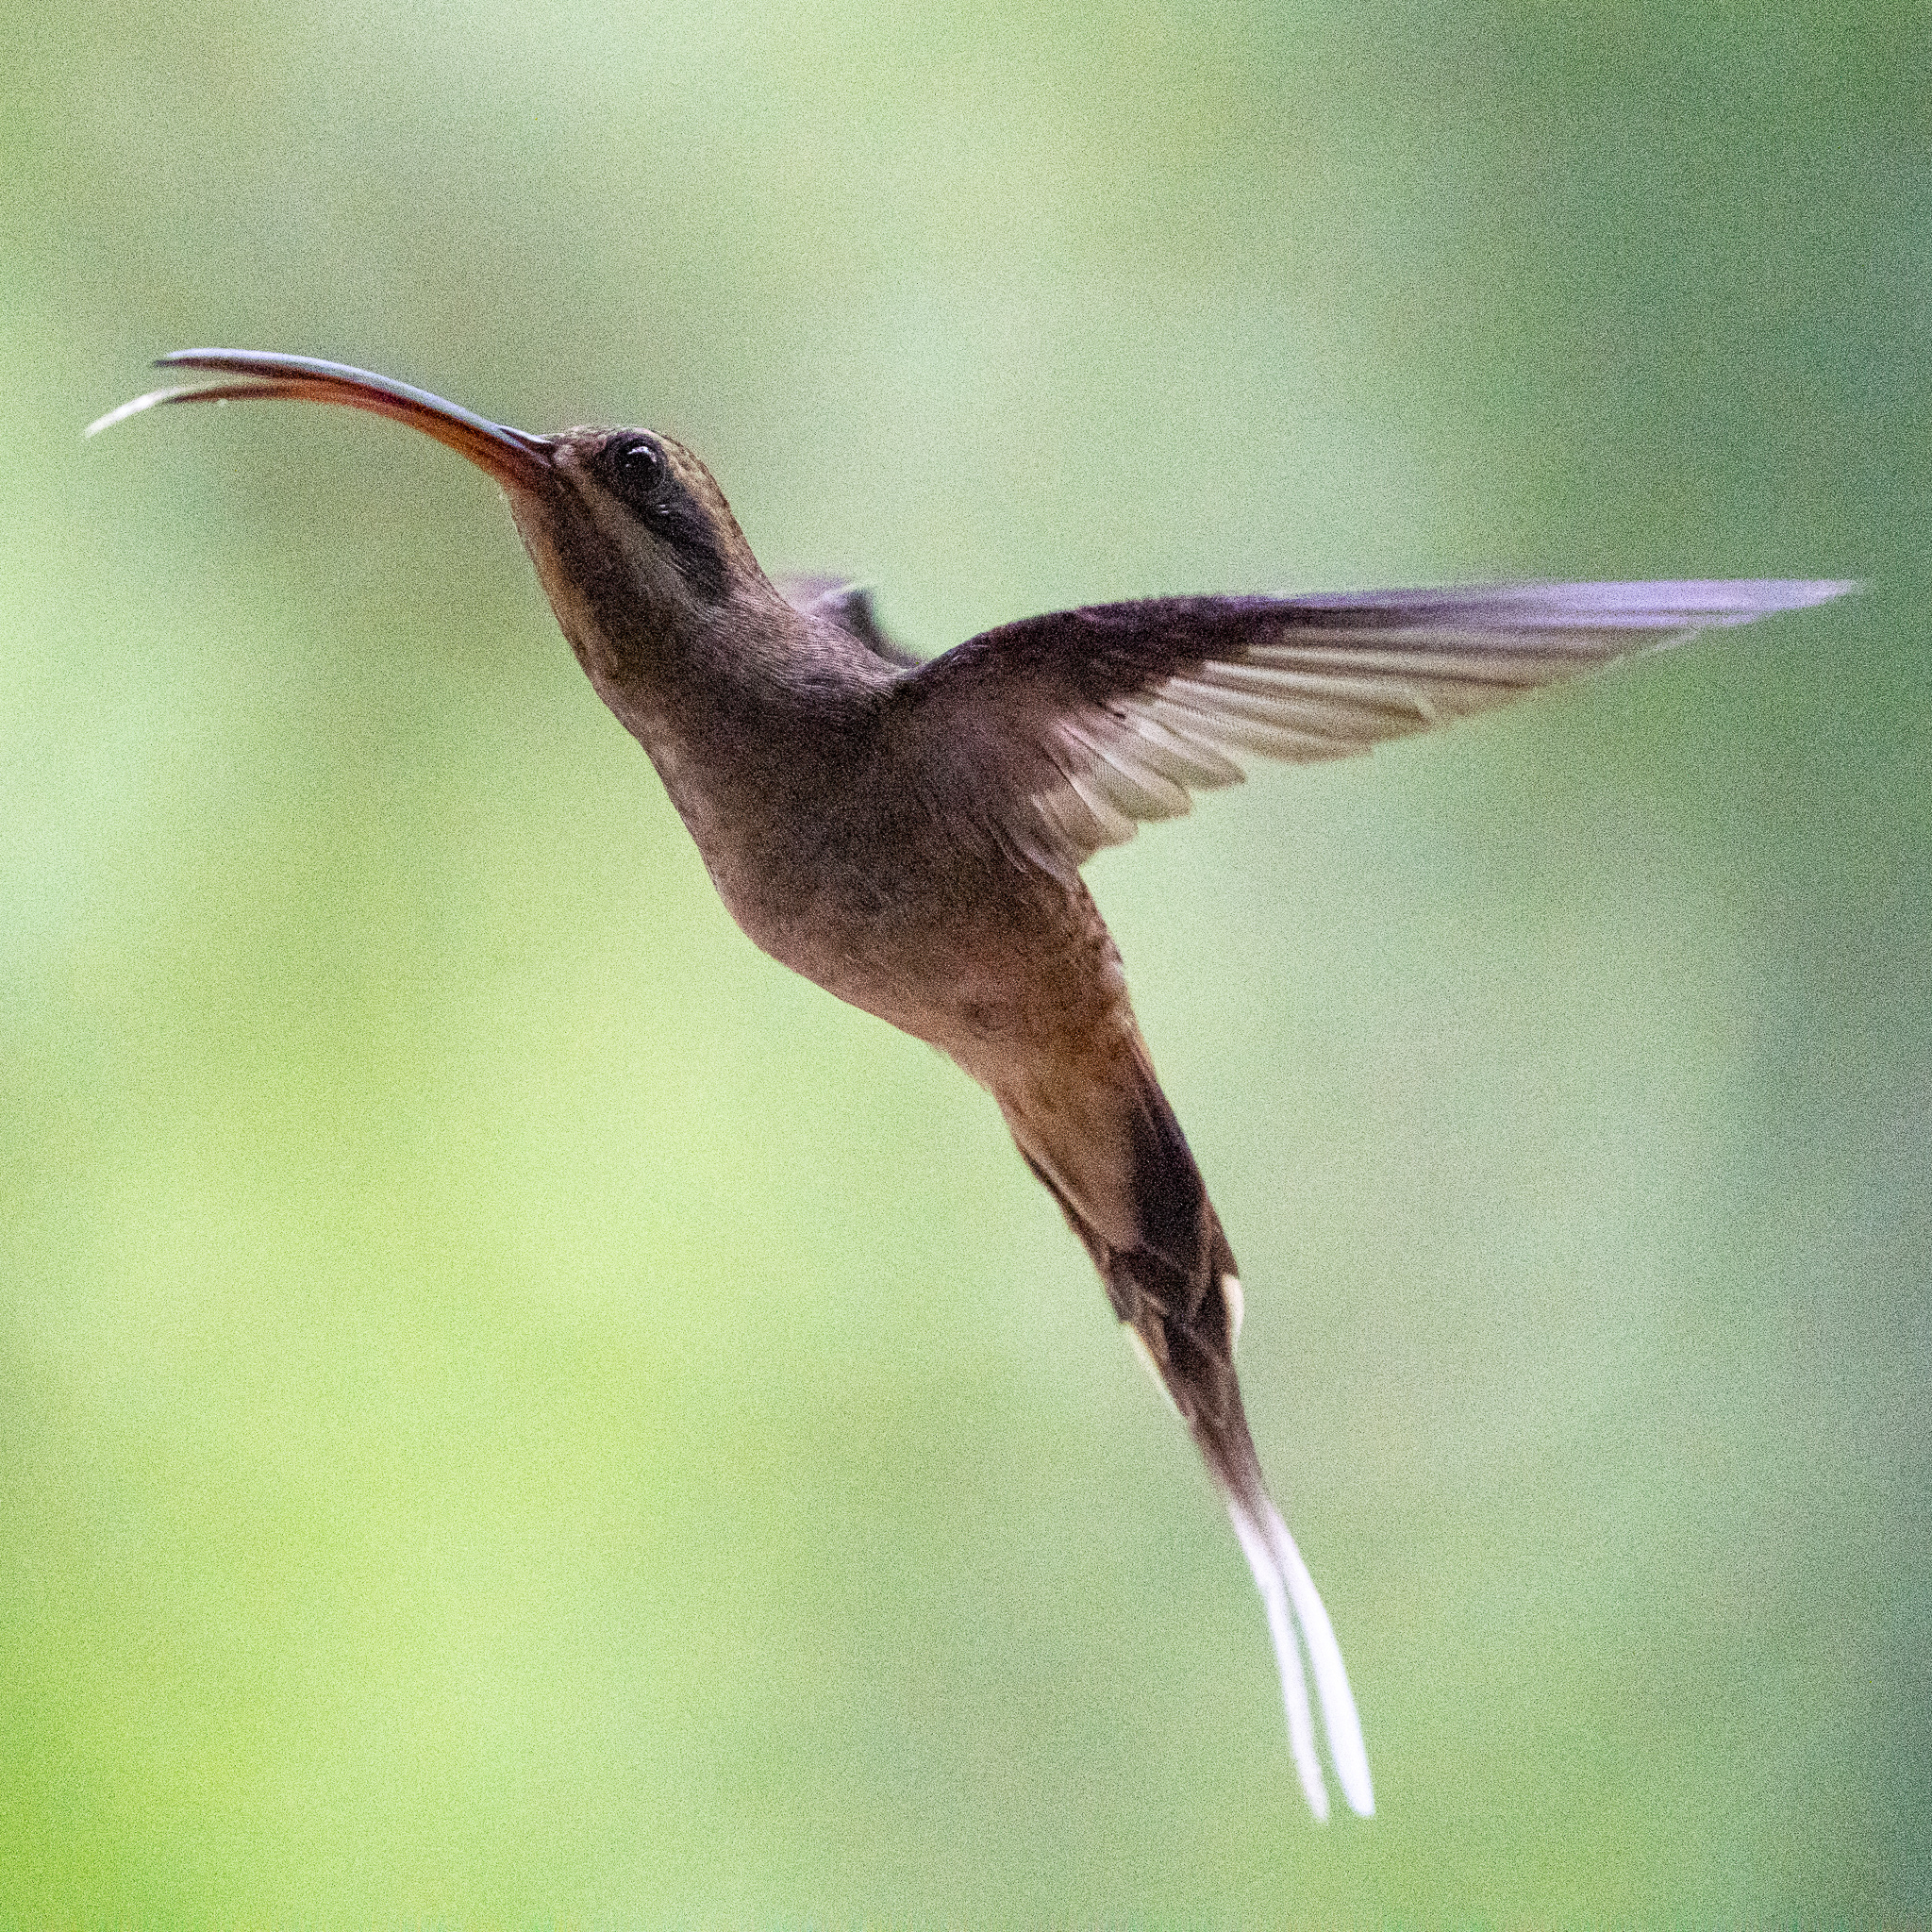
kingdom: Animalia
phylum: Chordata
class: Aves
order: Apodiformes
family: Trochilidae
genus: Phaethornis
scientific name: Phaethornis longirostris
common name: Long-billed hermit
